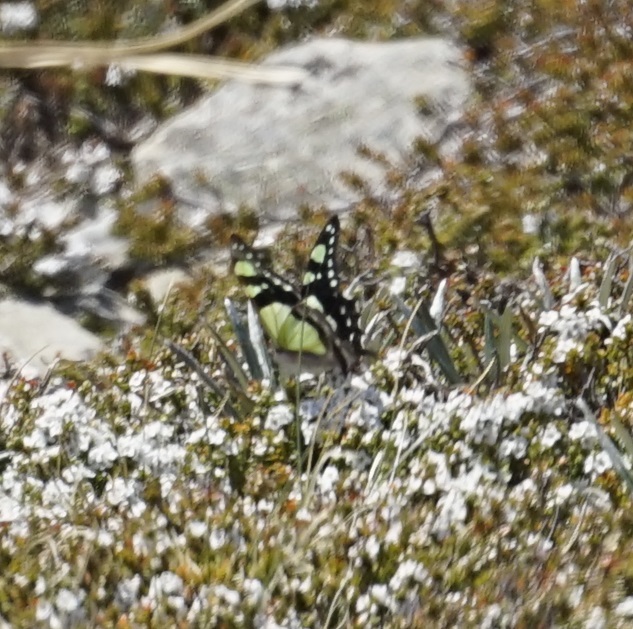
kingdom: Animalia
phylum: Arthropoda
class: Insecta
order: Lepidoptera
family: Papilionidae
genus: Graphium
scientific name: Graphium macleayanus
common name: Macleay's swallowtail
